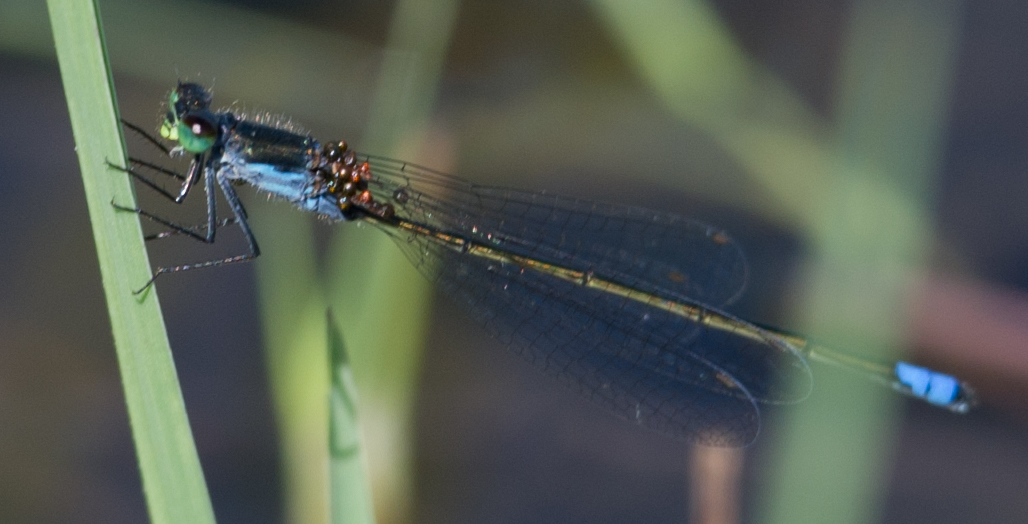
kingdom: Animalia
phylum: Arthropoda
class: Insecta
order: Odonata
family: Coenagrionidae
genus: Pseudagrion
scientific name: Pseudagrion deningi
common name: Dening's sprite
